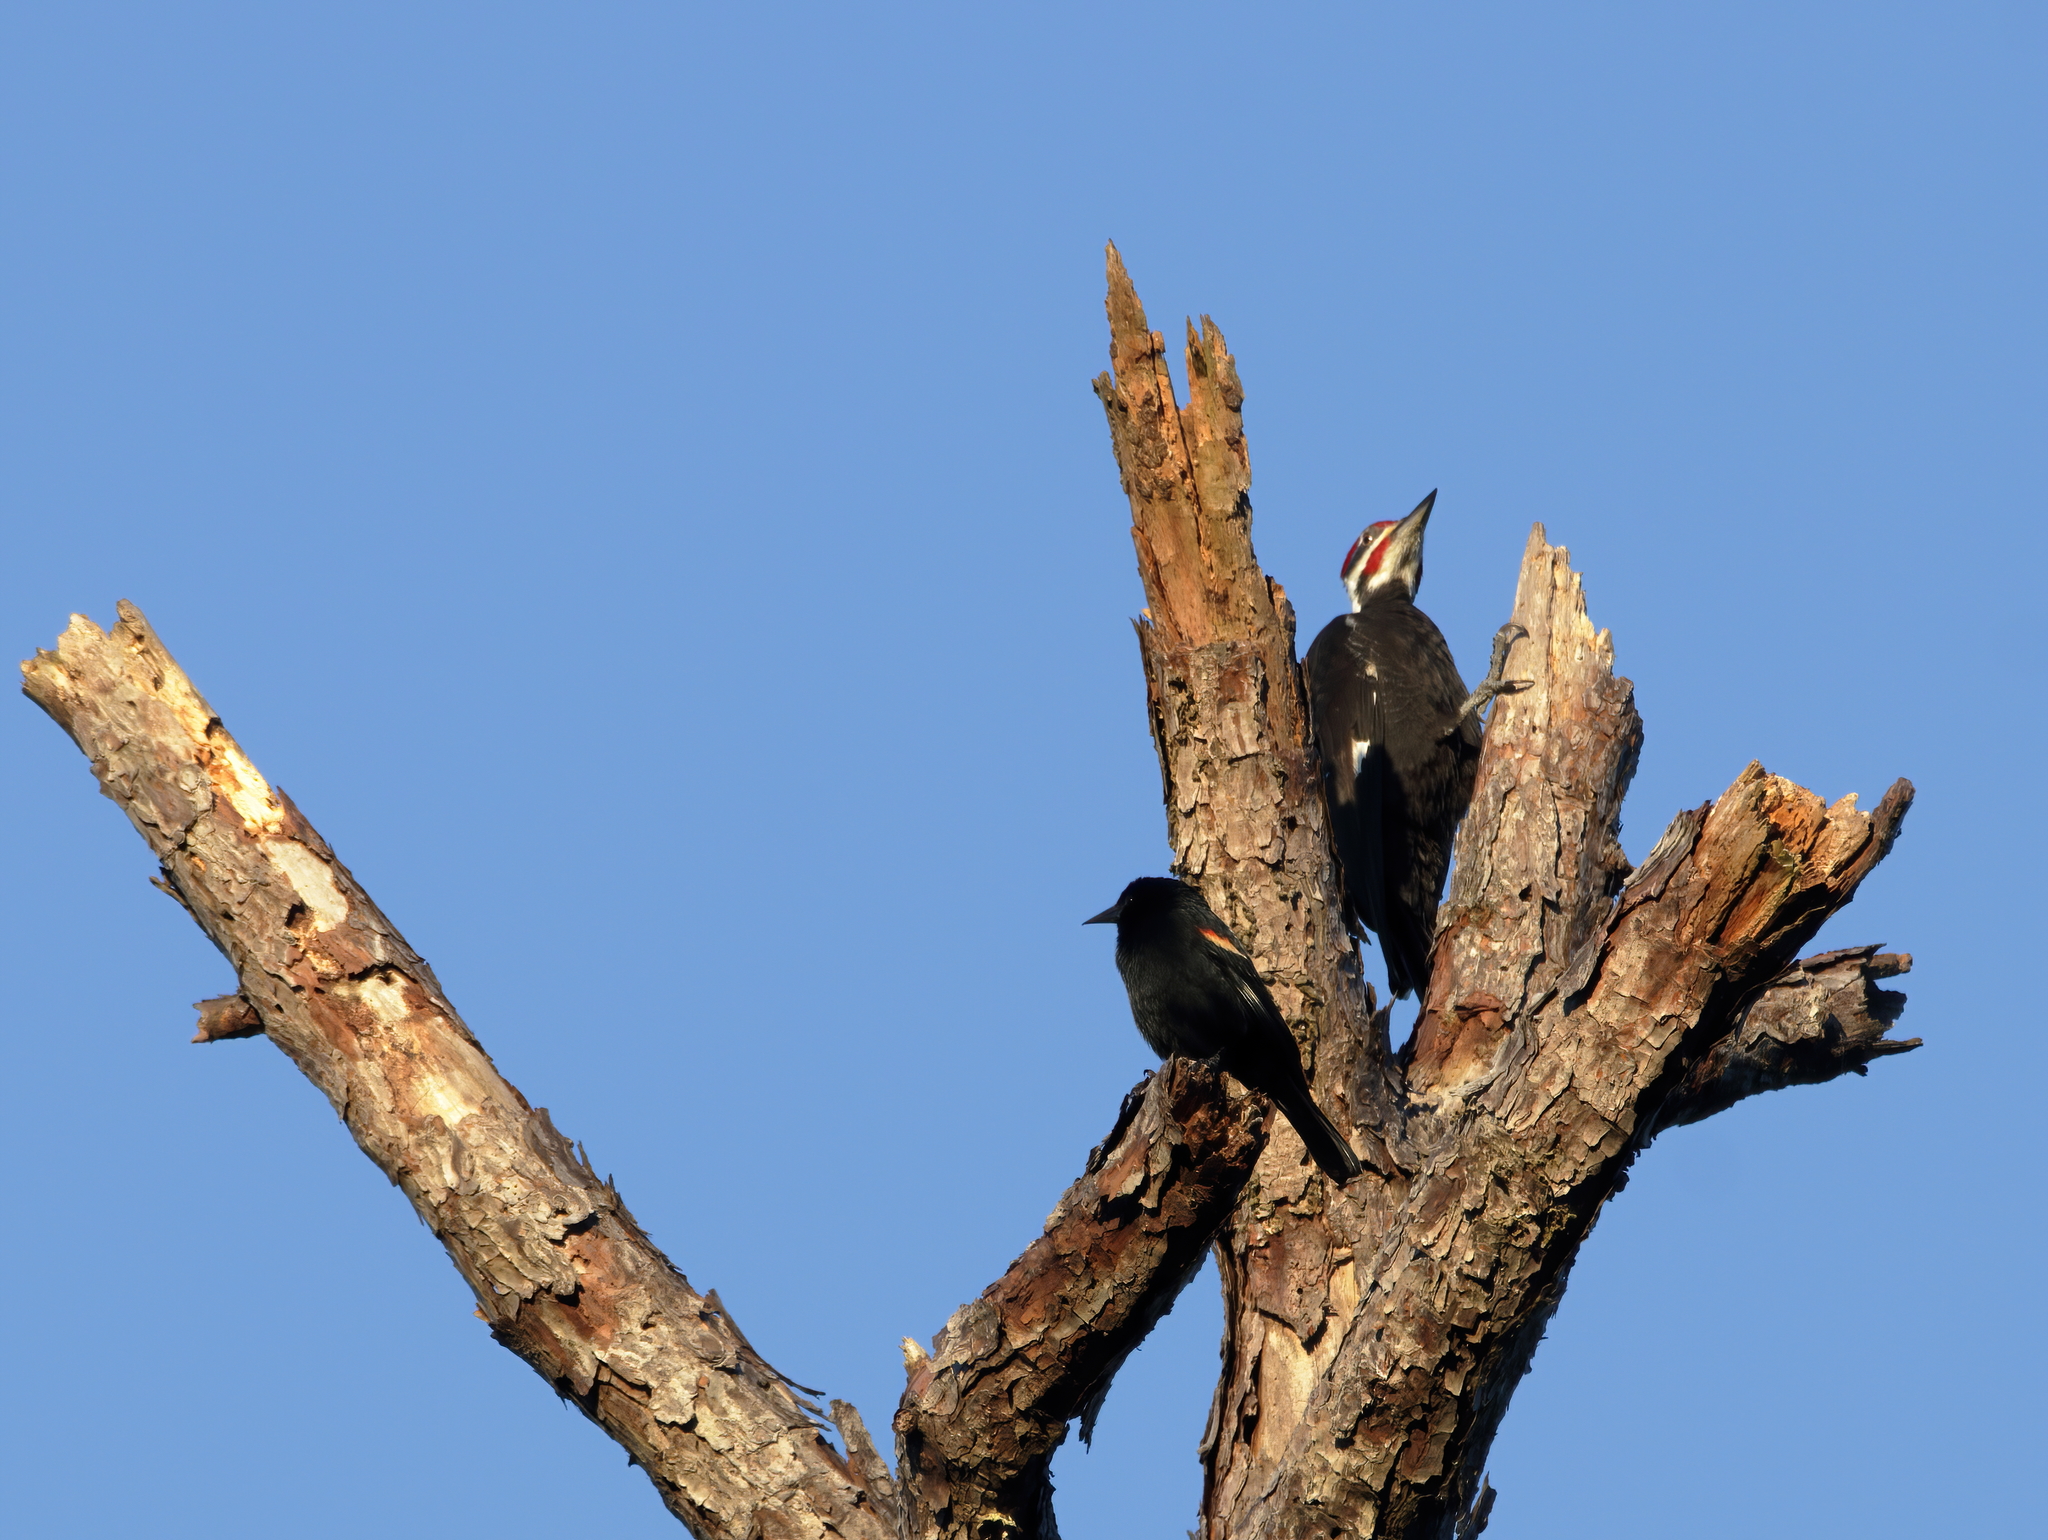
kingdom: Animalia
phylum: Chordata
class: Aves
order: Passeriformes
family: Icteridae
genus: Agelaius
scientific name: Agelaius phoeniceus
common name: Red-winged blackbird
